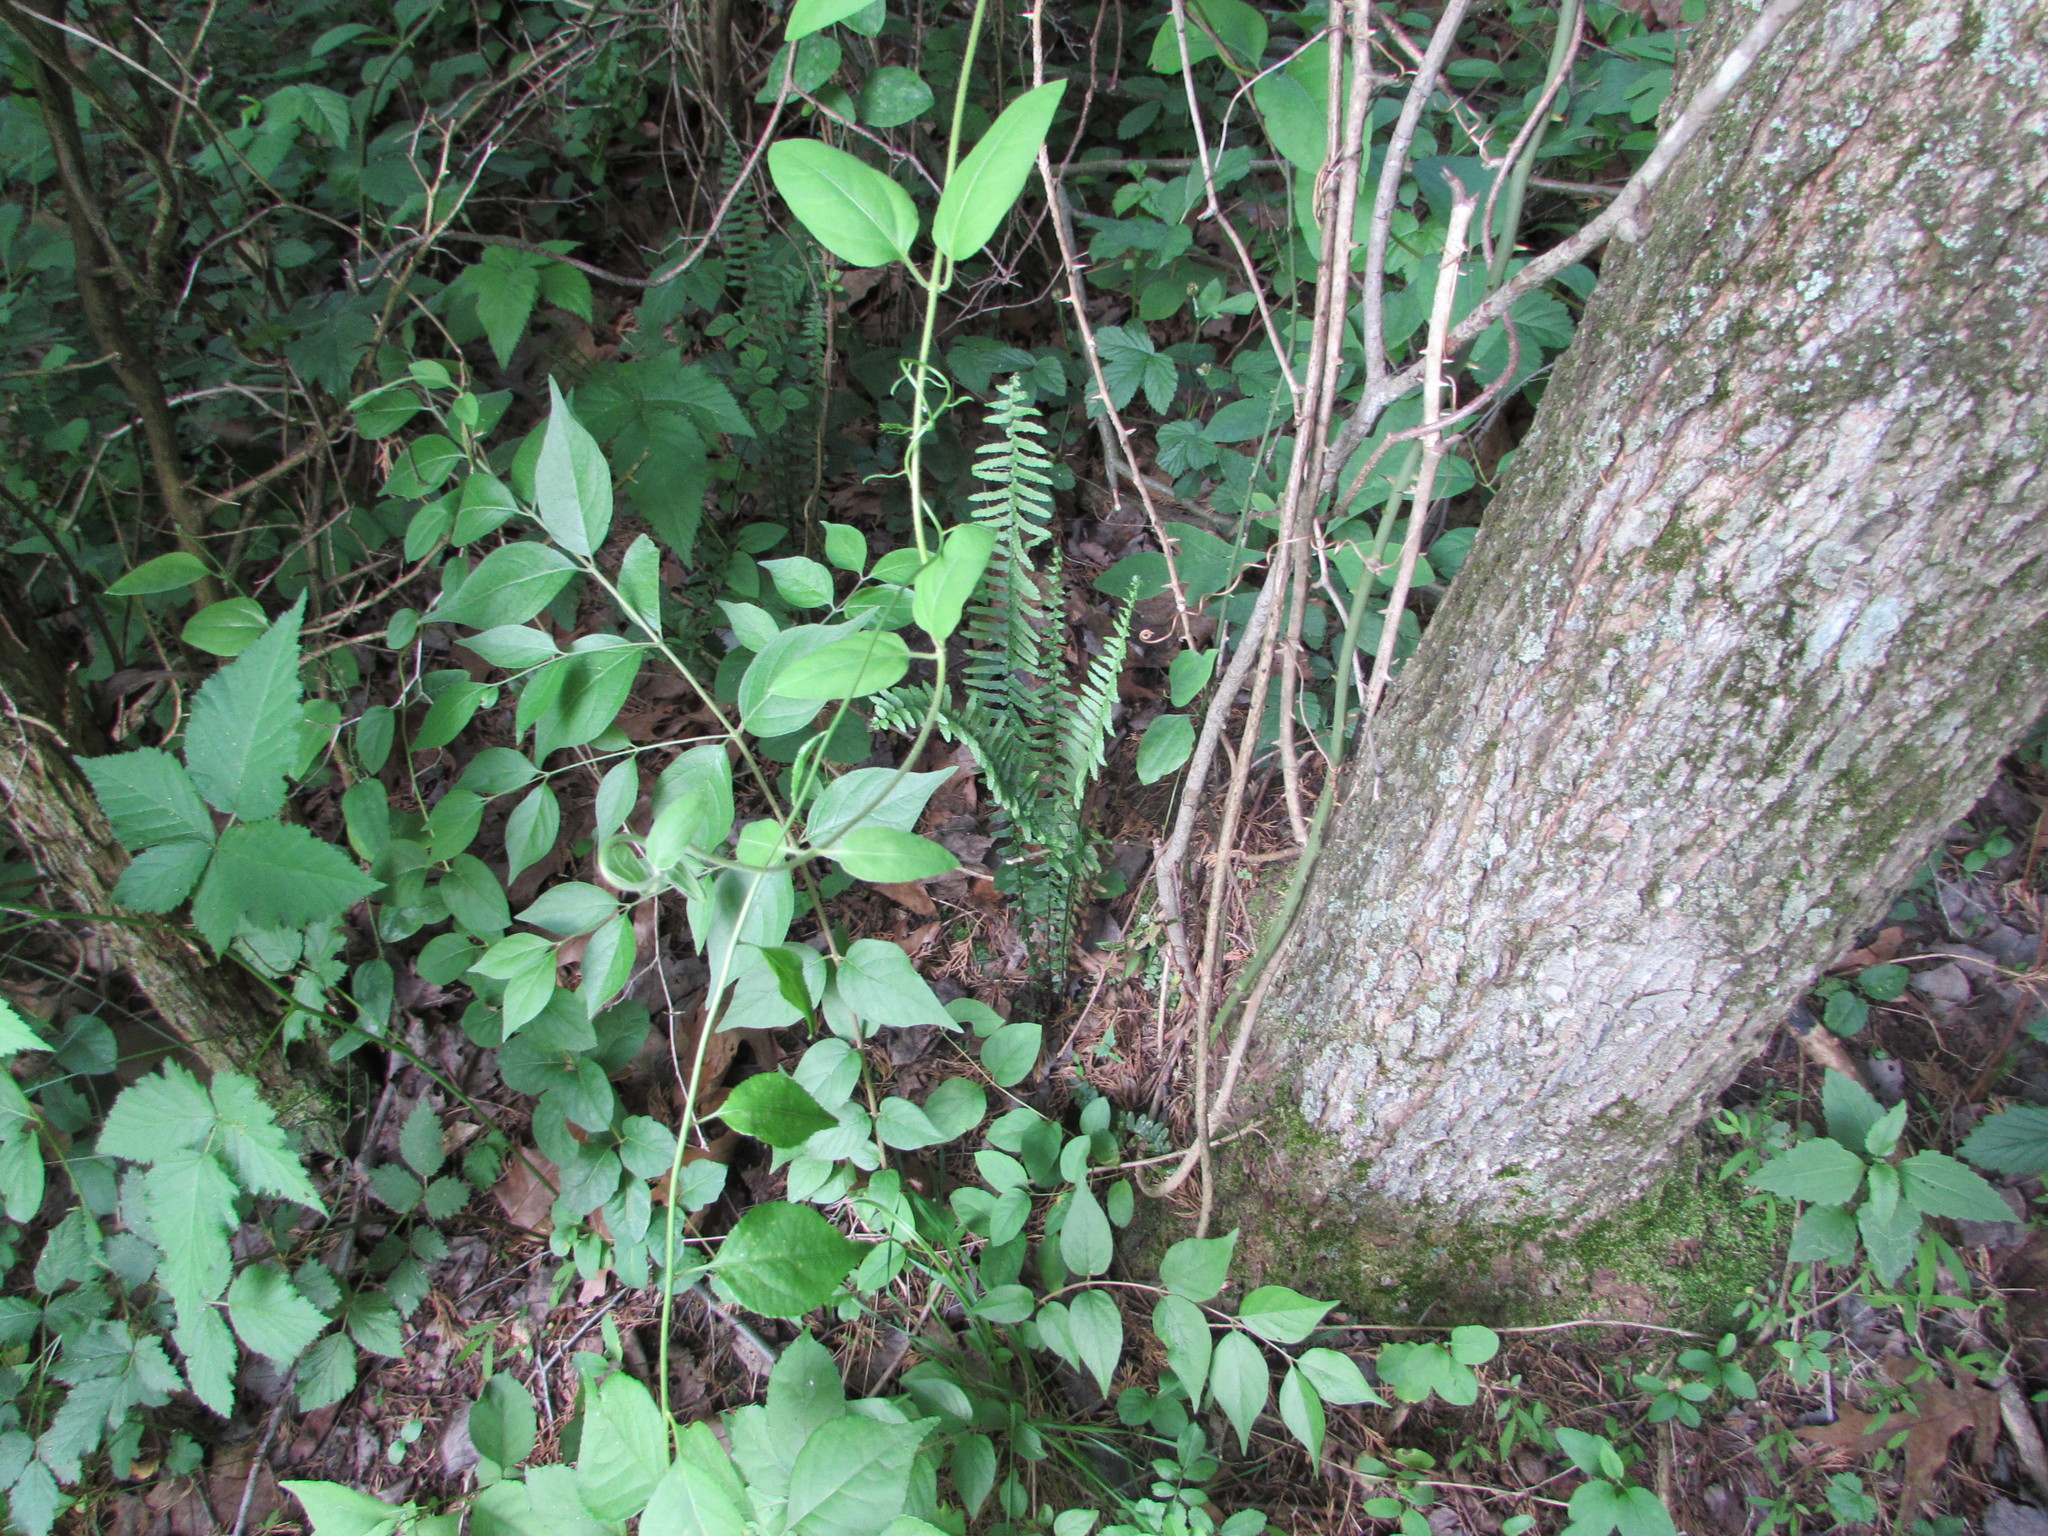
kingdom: Plantae
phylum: Tracheophyta
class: Polypodiopsida
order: Polypodiales
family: Aspleniaceae
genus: Asplenium
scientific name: Asplenium platyneuron
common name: Ebony spleenwort
